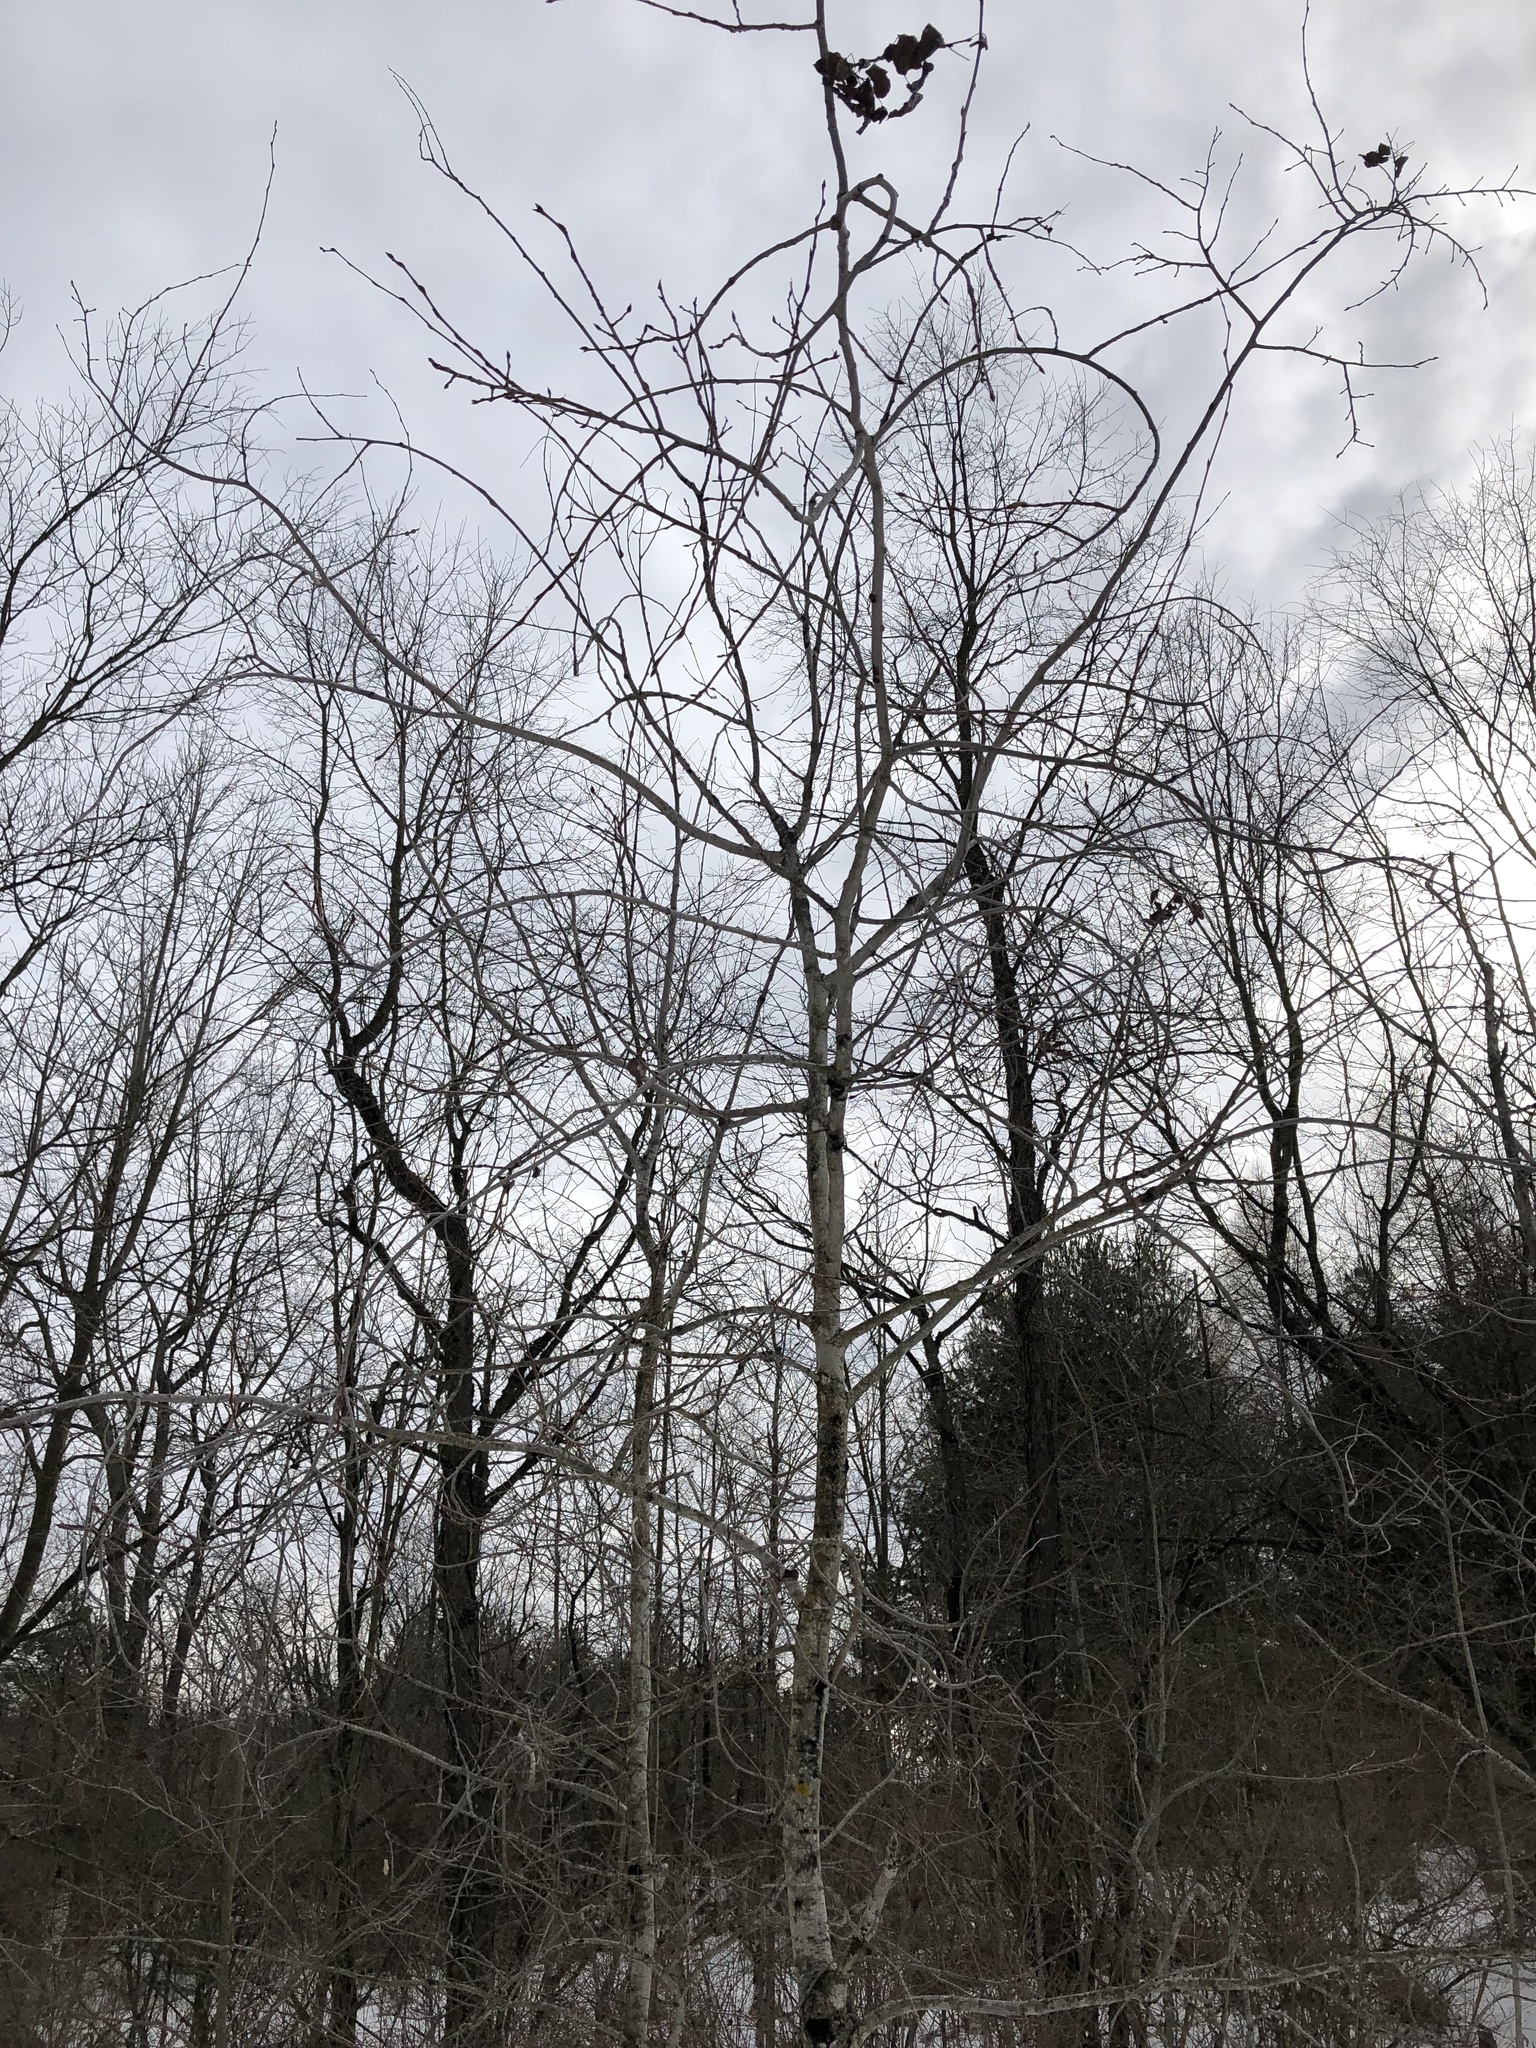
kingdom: Plantae
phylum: Tracheophyta
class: Magnoliopsida
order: Malpighiales
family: Salicaceae
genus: Populus
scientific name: Populus tremuloides
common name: Quaking aspen
